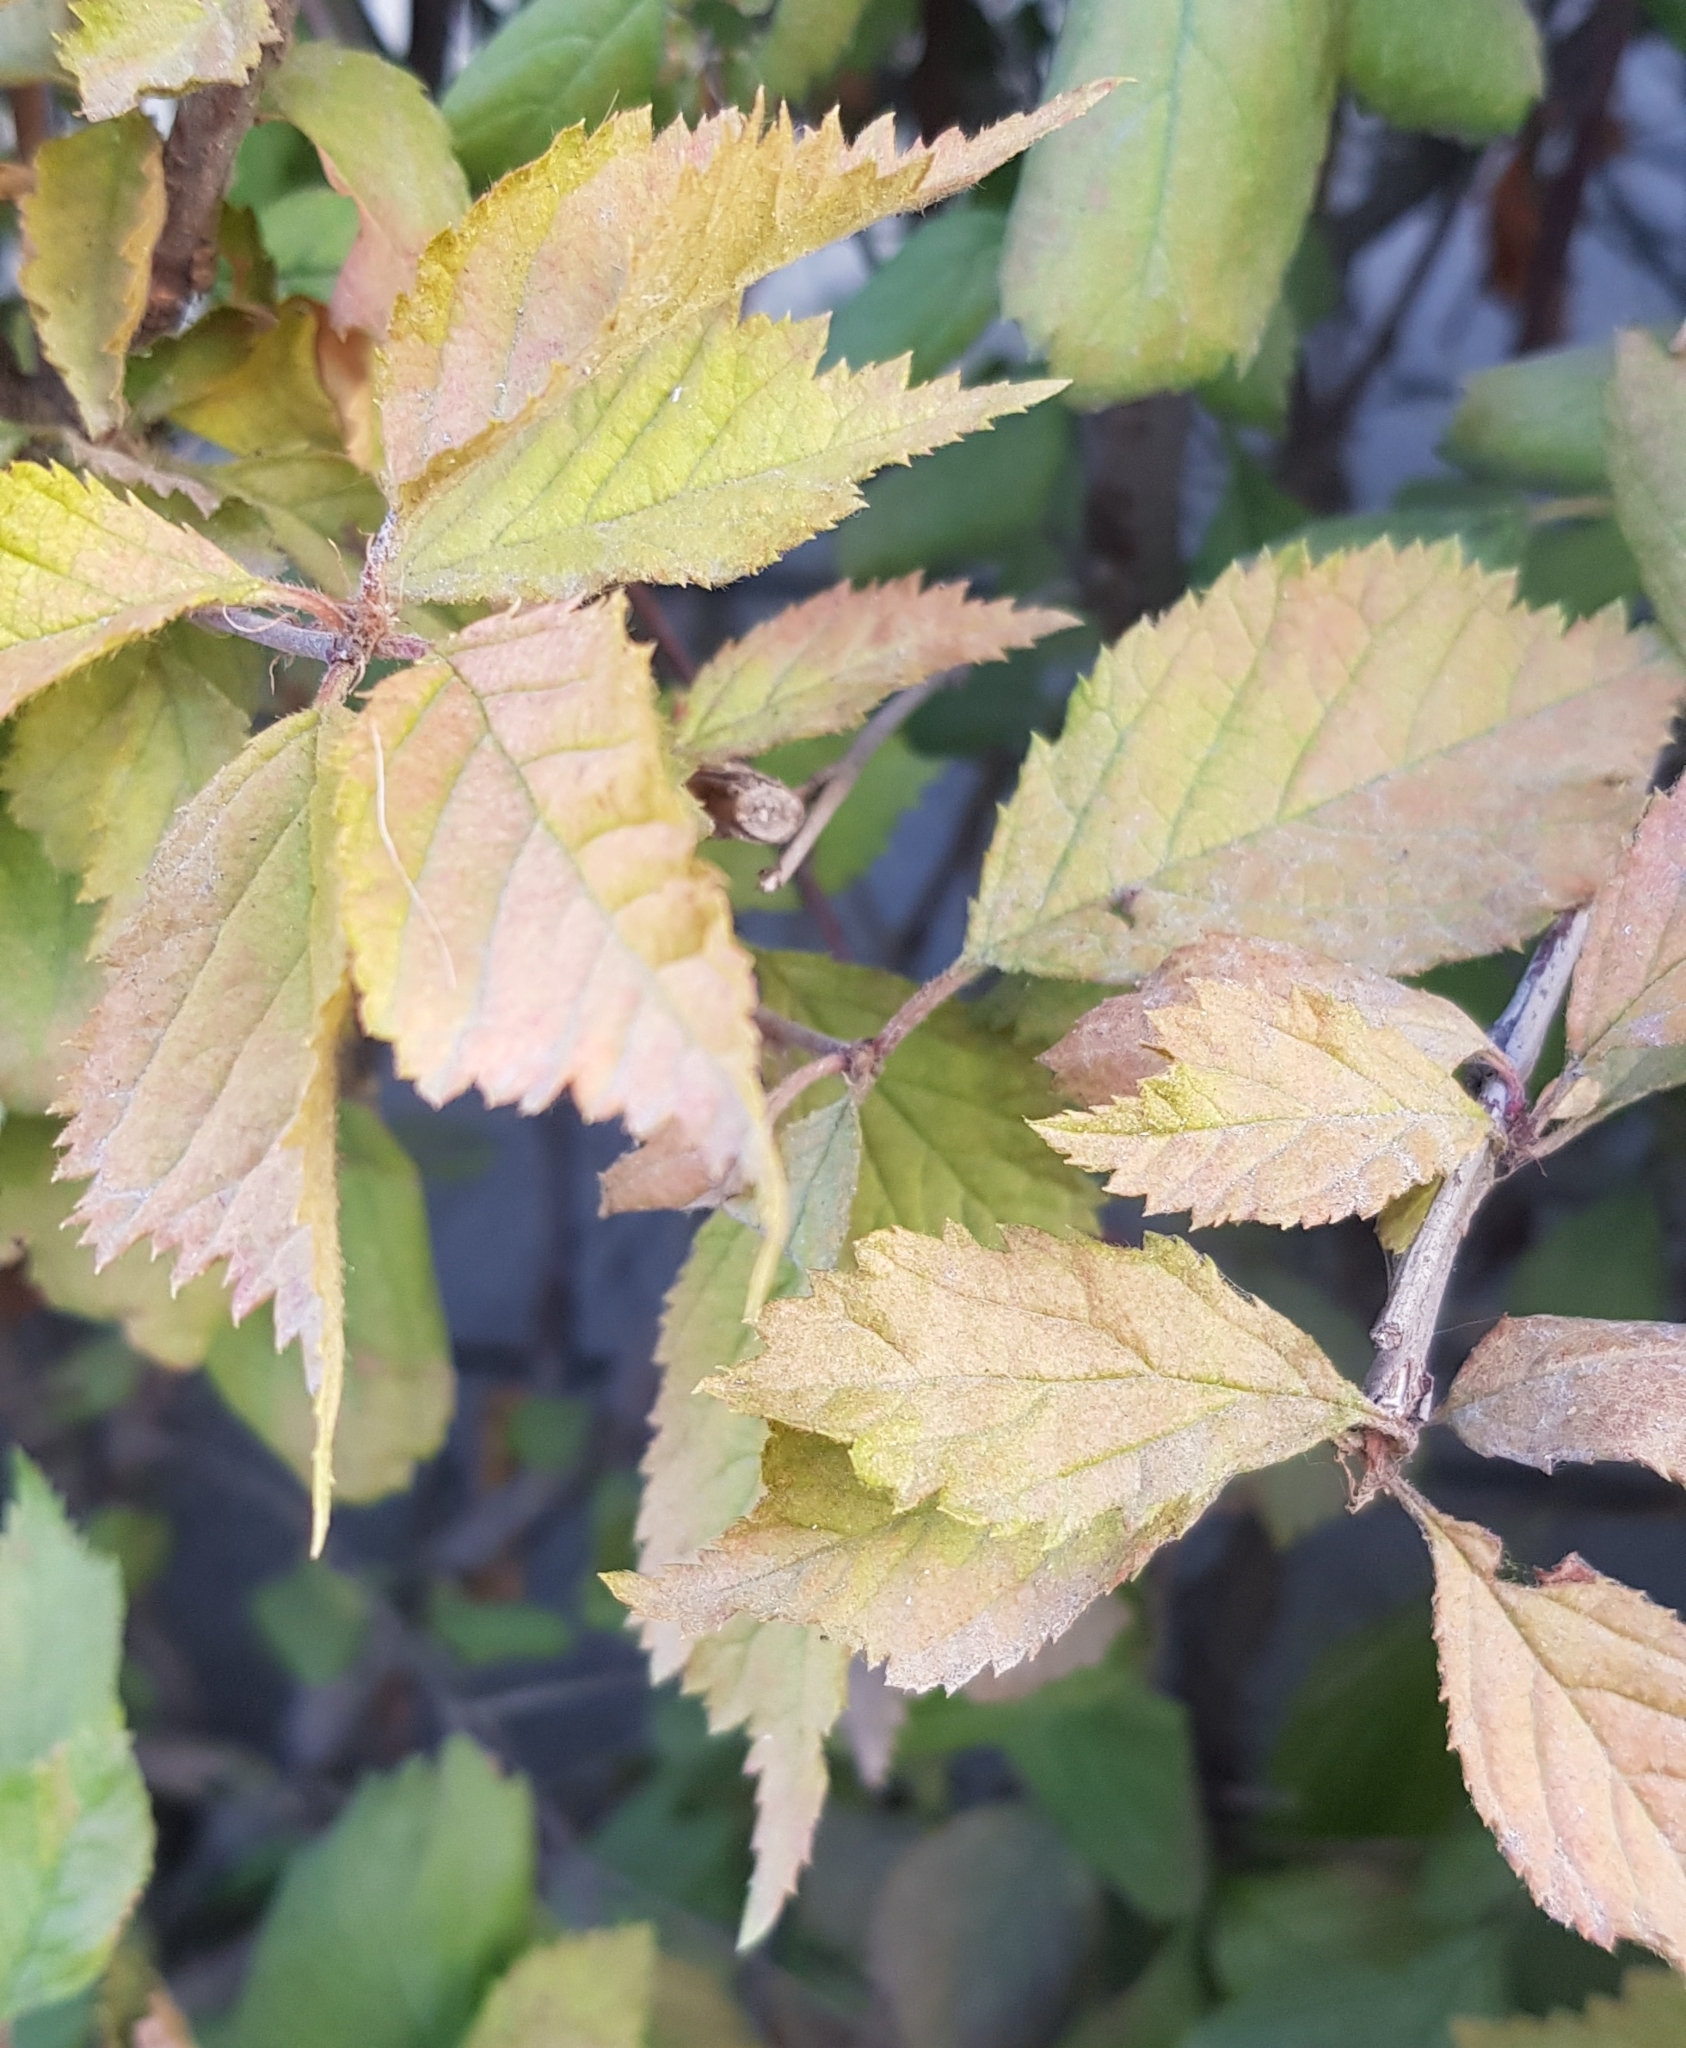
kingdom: Plantae
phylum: Tracheophyta
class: Magnoliopsida
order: Rosales
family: Rosaceae
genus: Crataegus
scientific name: Crataegus sanguinea
